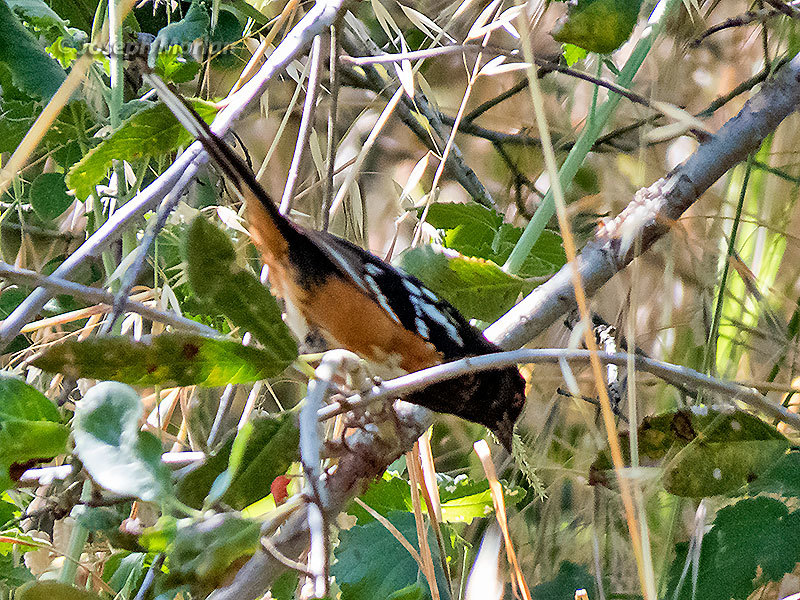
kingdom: Animalia
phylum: Chordata
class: Aves
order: Passeriformes
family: Passerellidae
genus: Pipilo
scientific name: Pipilo maculatus
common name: Spotted towhee
